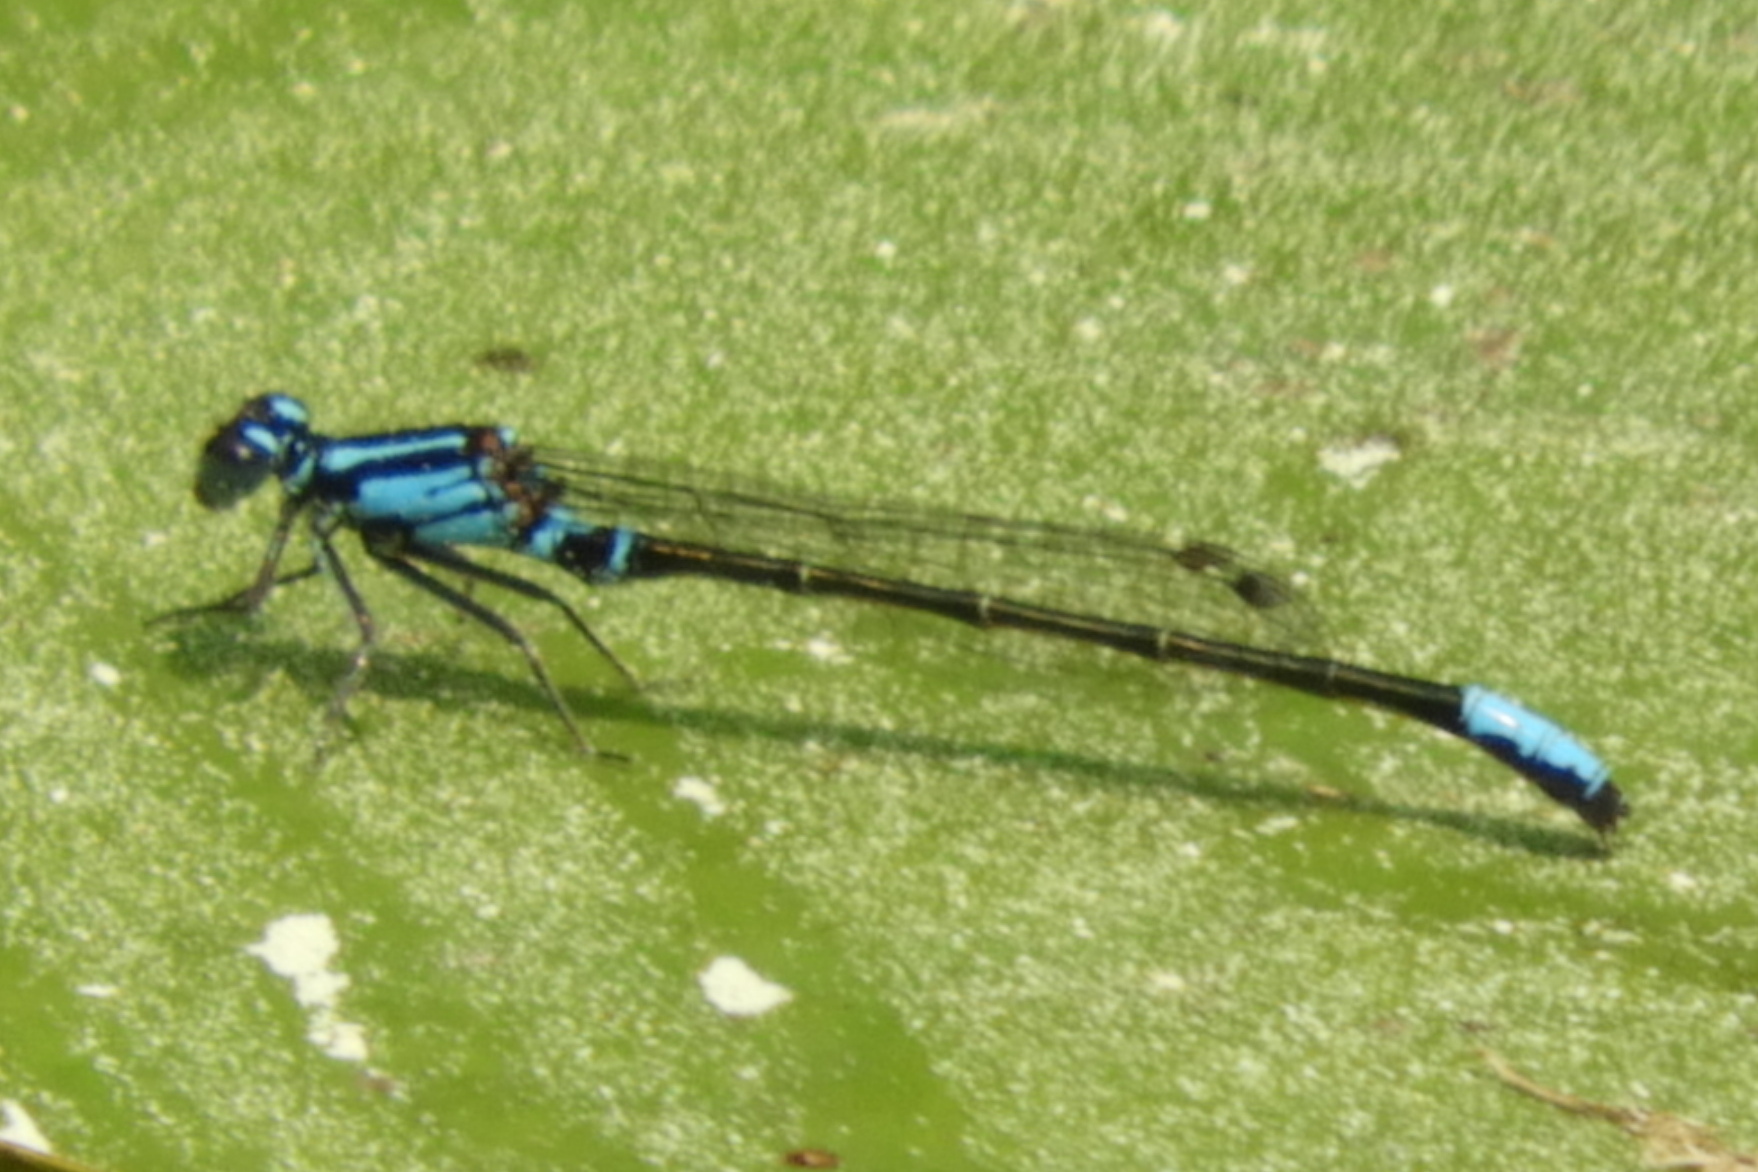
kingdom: Animalia
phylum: Arthropoda
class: Insecta
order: Odonata
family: Coenagrionidae
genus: Ischnura
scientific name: Ischnura kellicotti
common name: Lilypad forktail
